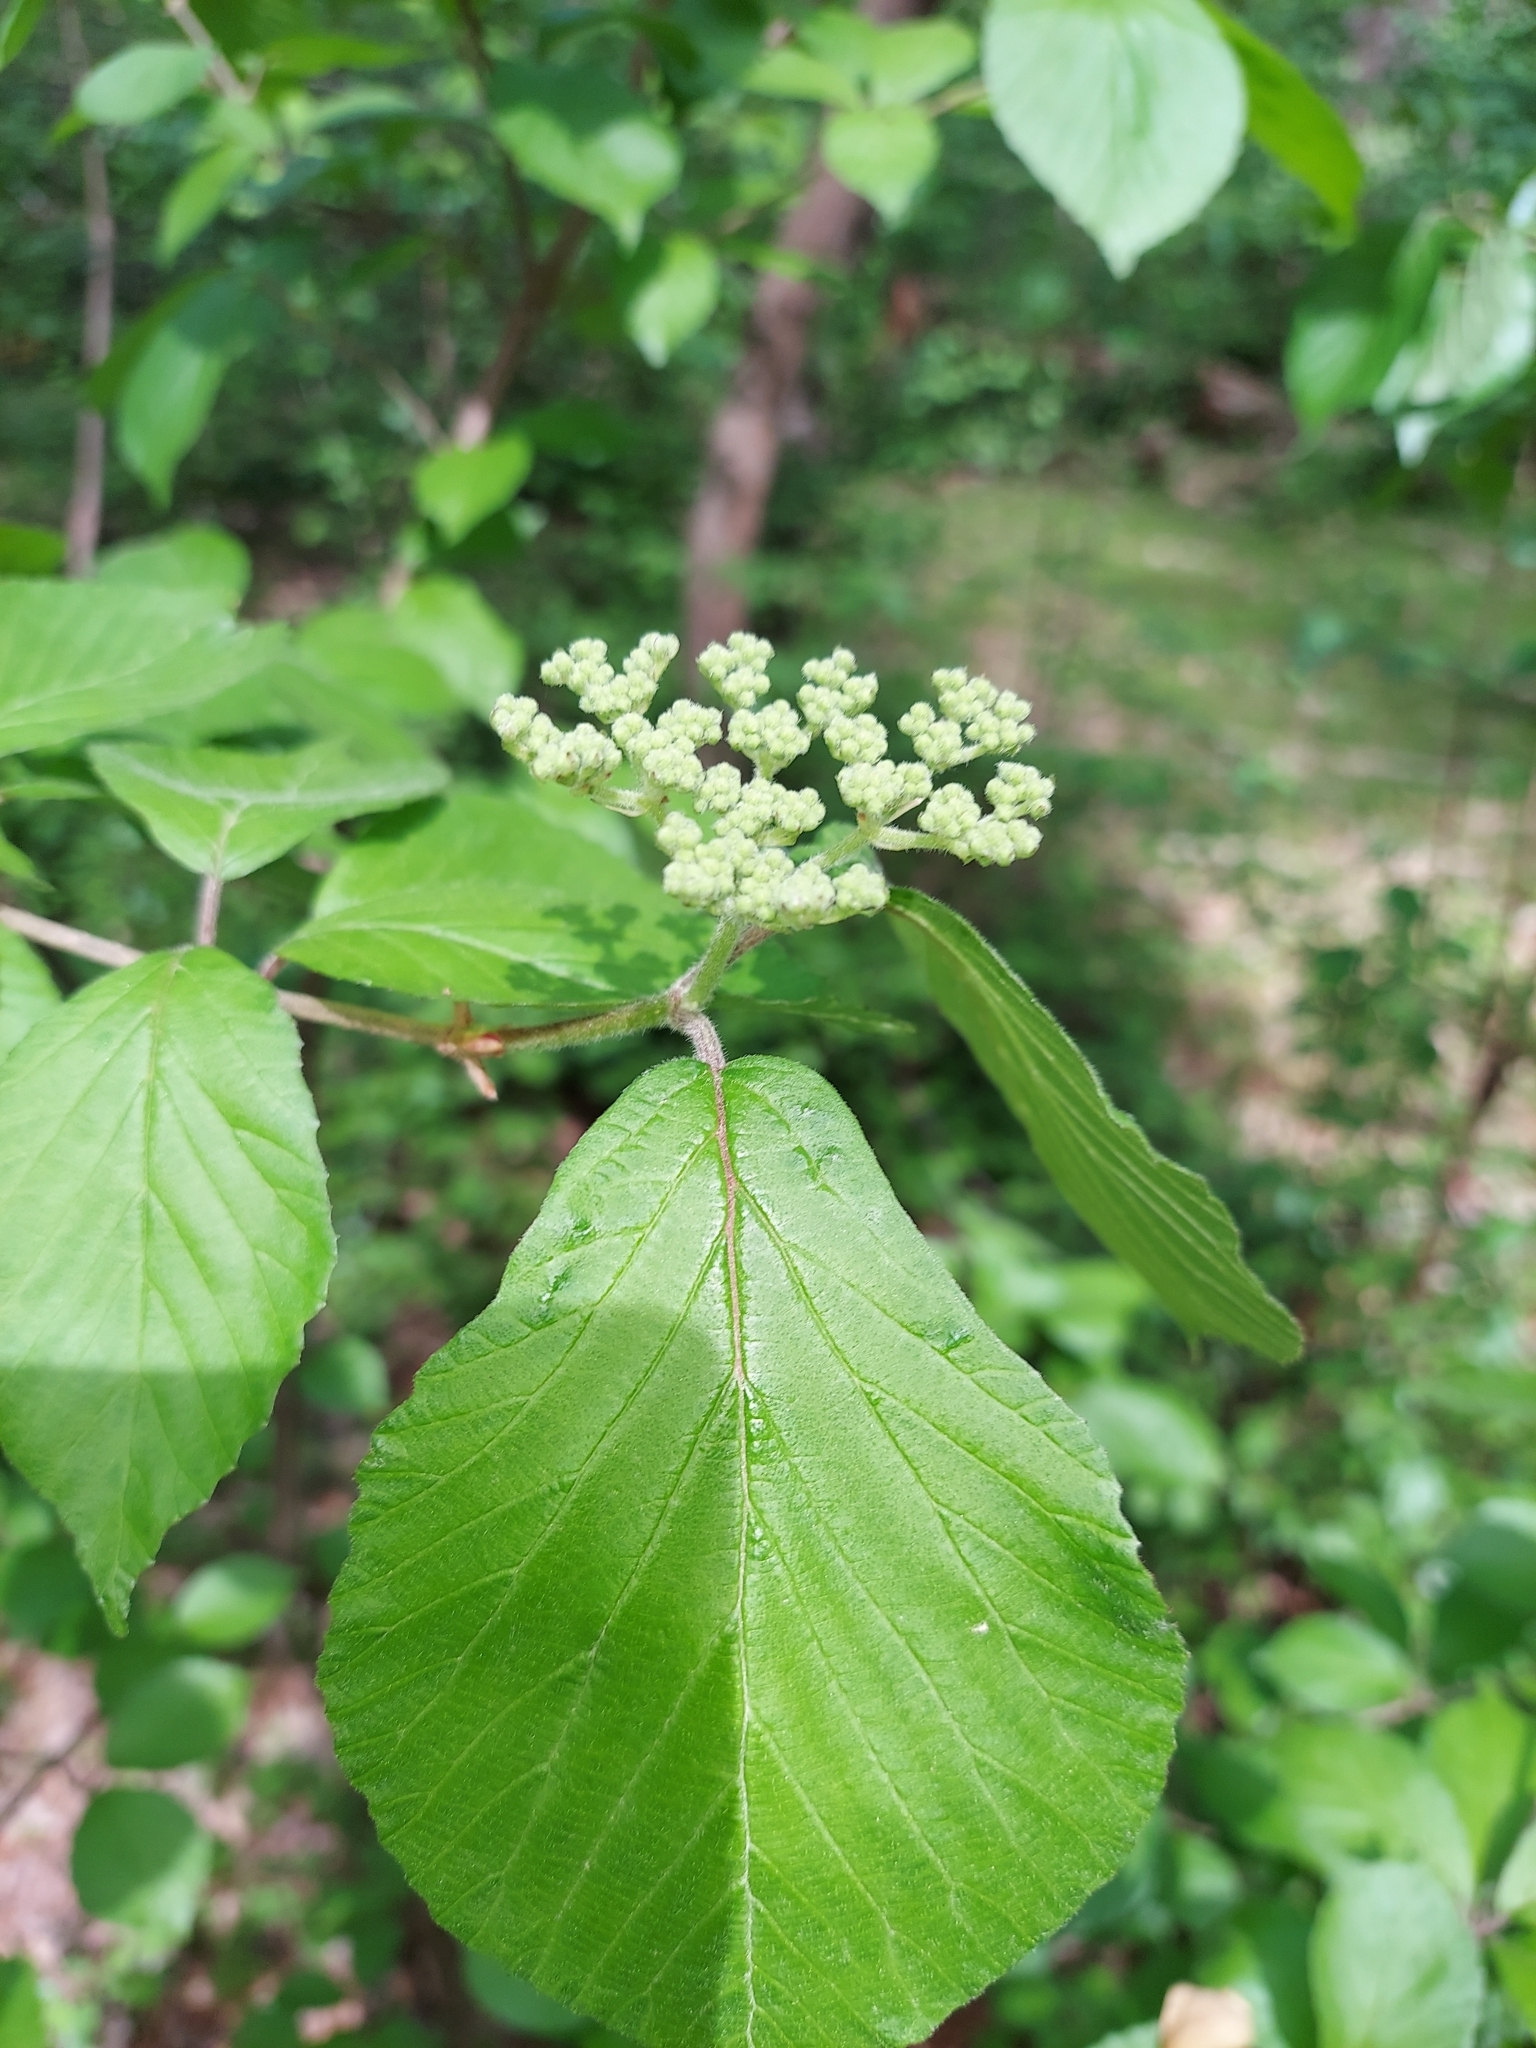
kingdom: Plantae
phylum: Tracheophyta
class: Magnoliopsida
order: Dipsacales
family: Viburnaceae
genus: Viburnum
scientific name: Viburnum dilatatum
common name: Linden arrowwood
